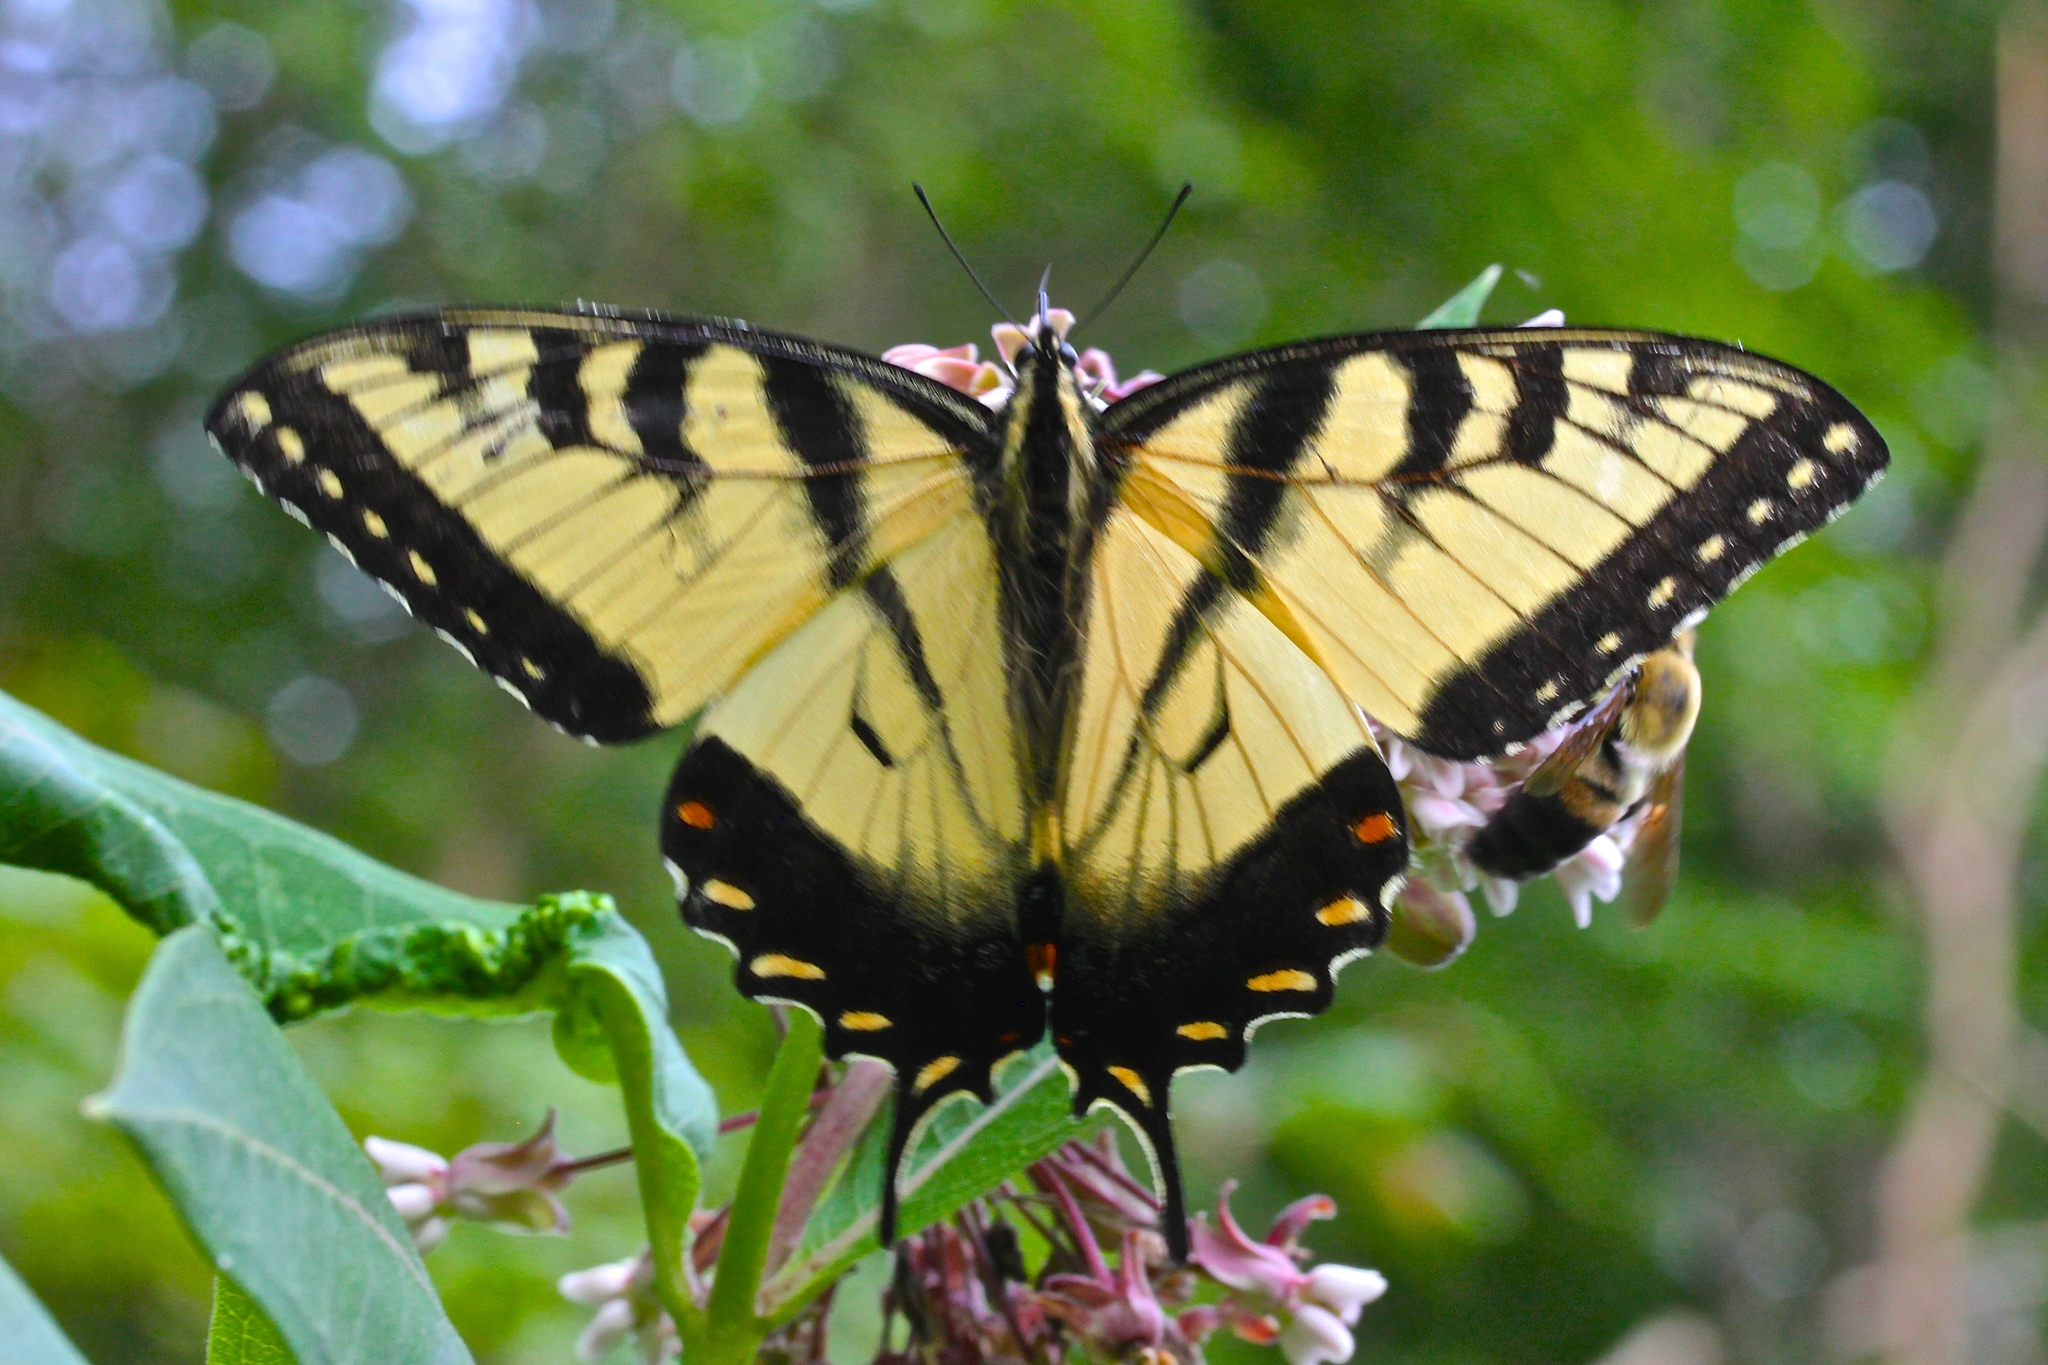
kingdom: Animalia
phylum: Arthropoda
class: Insecta
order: Lepidoptera
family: Papilionidae
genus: Papilio
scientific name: Papilio glaucus
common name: Tiger swallowtail
